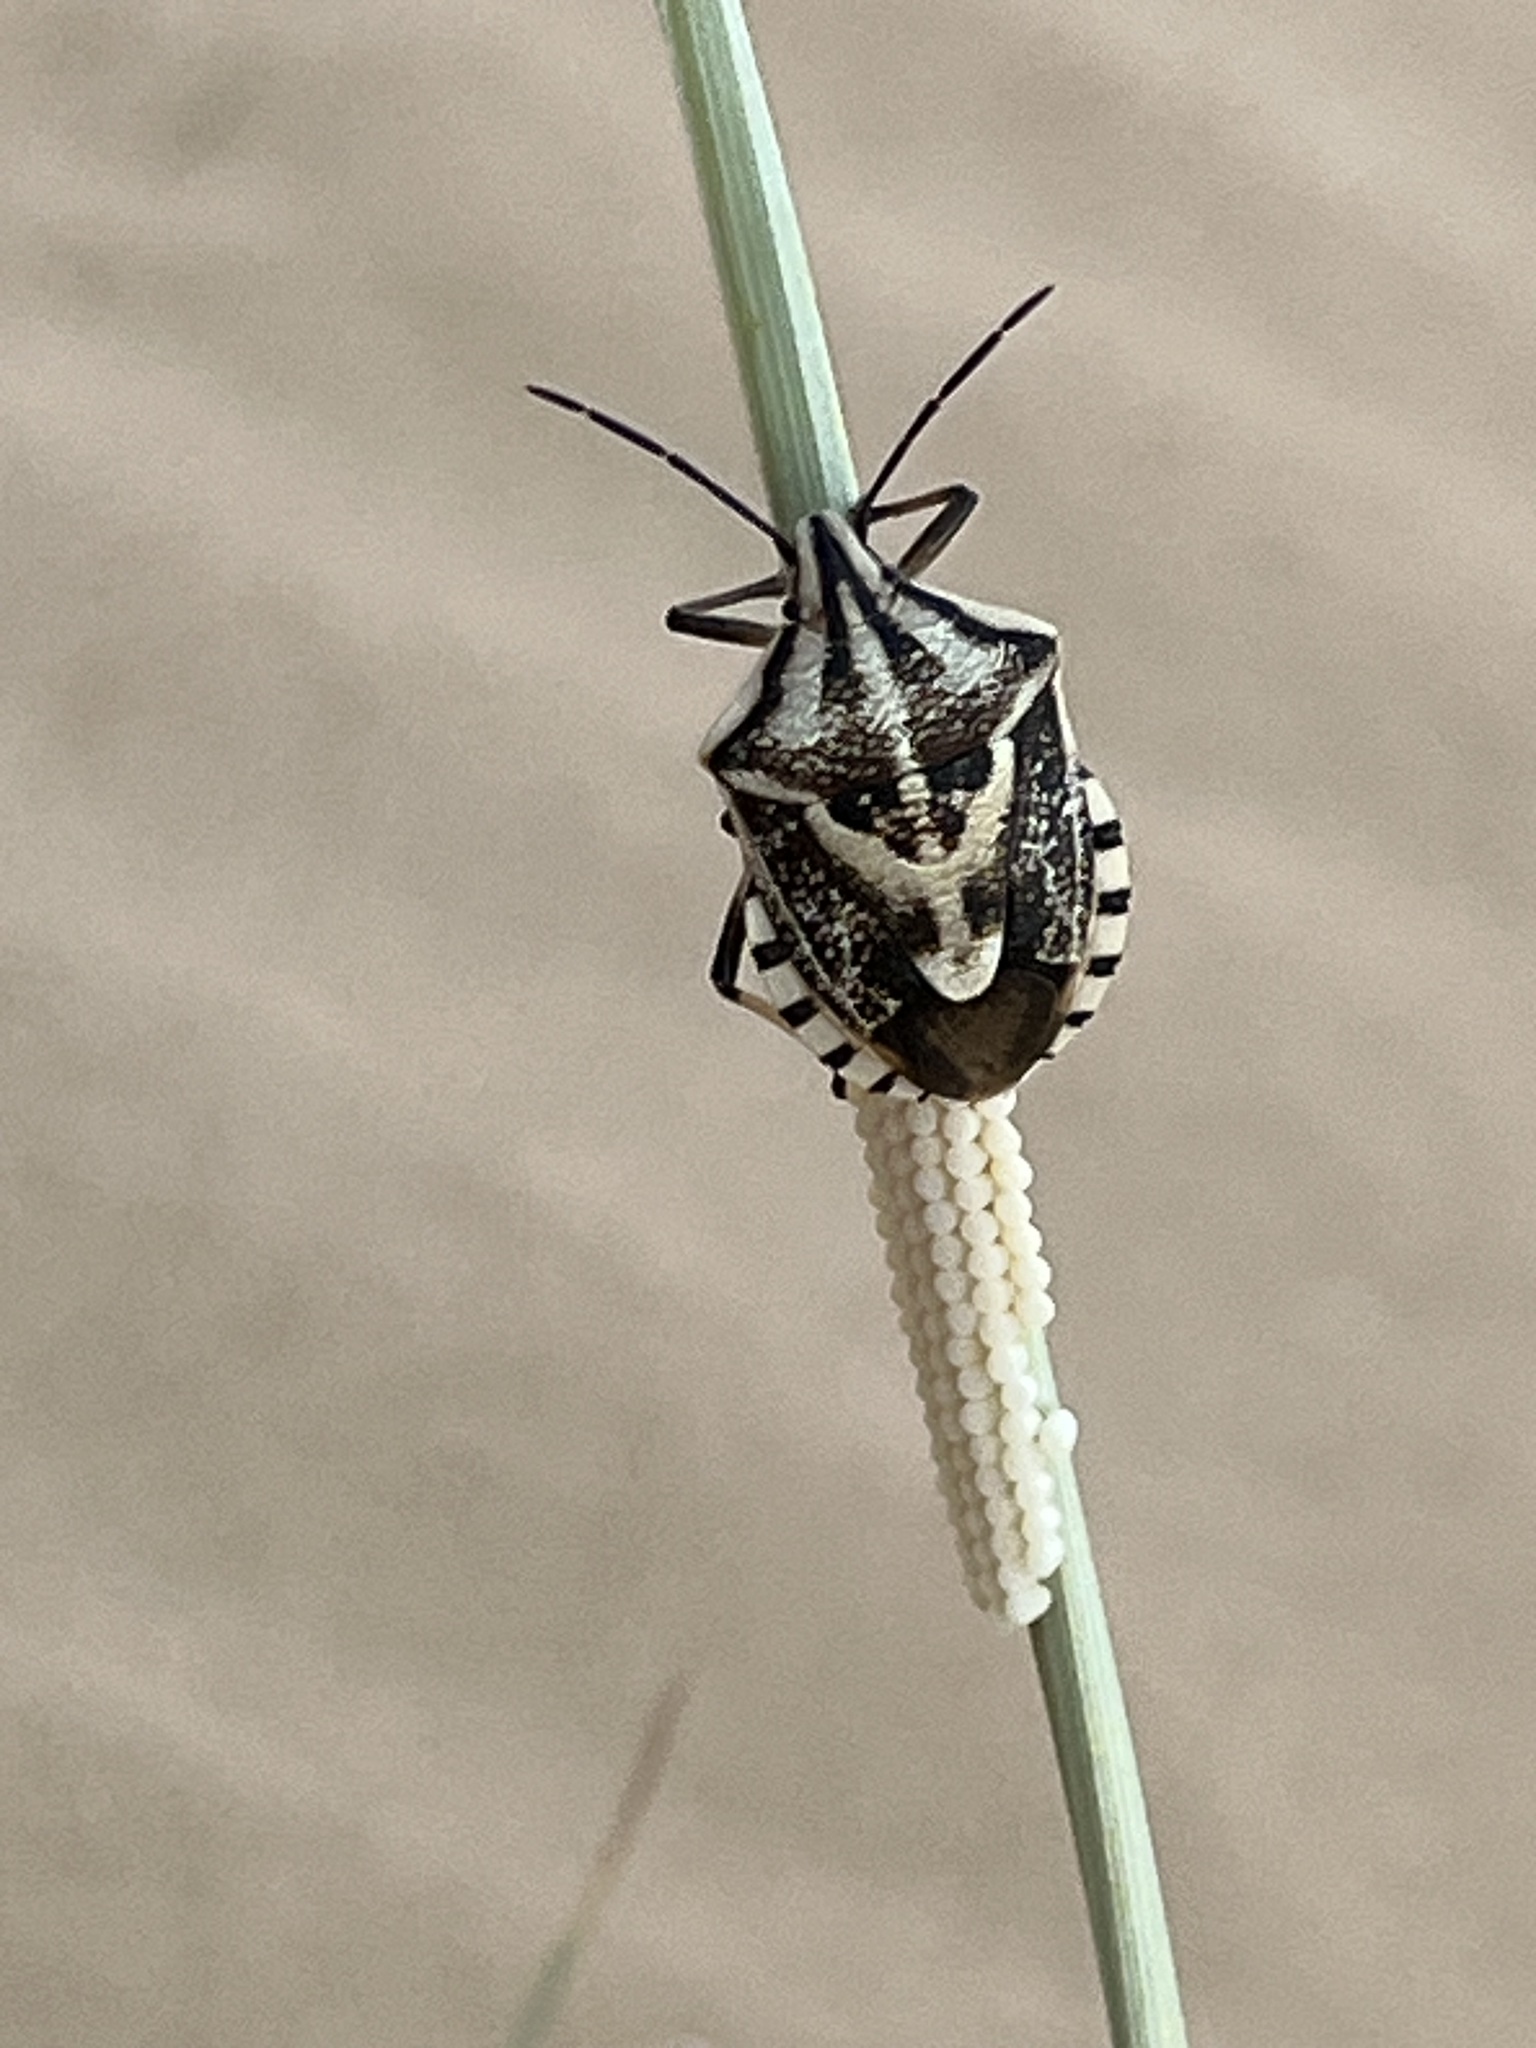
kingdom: Animalia
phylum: Arthropoda
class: Insecta
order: Hemiptera
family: Pentatomidae
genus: Codophila
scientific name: Codophila
